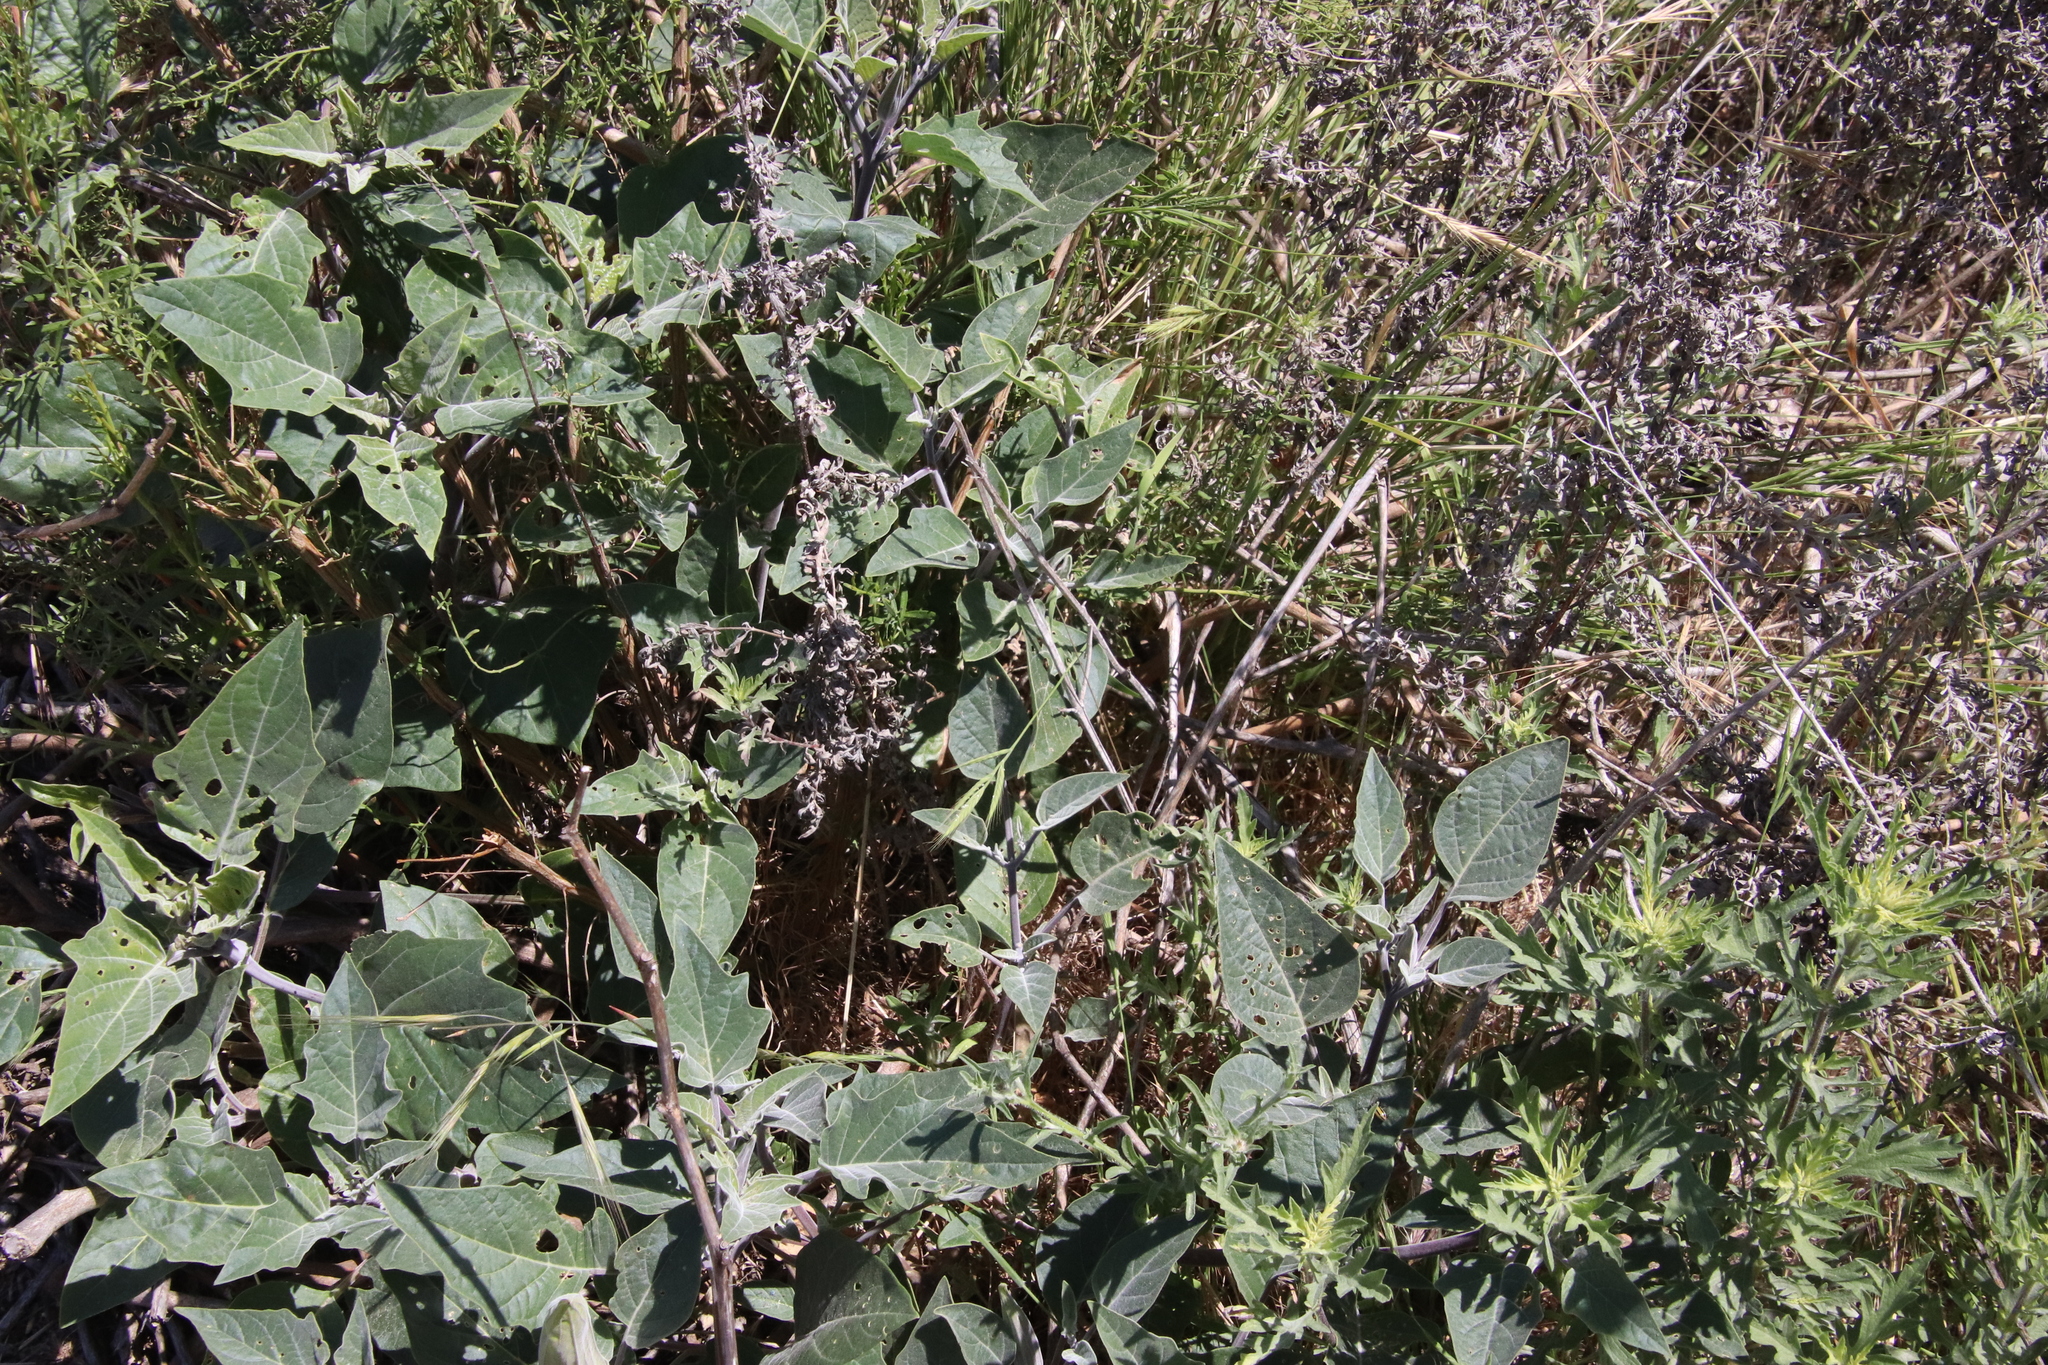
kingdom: Plantae
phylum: Tracheophyta
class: Magnoliopsida
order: Solanales
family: Solanaceae
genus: Datura
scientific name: Datura wrightii
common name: Sacred thorn-apple
